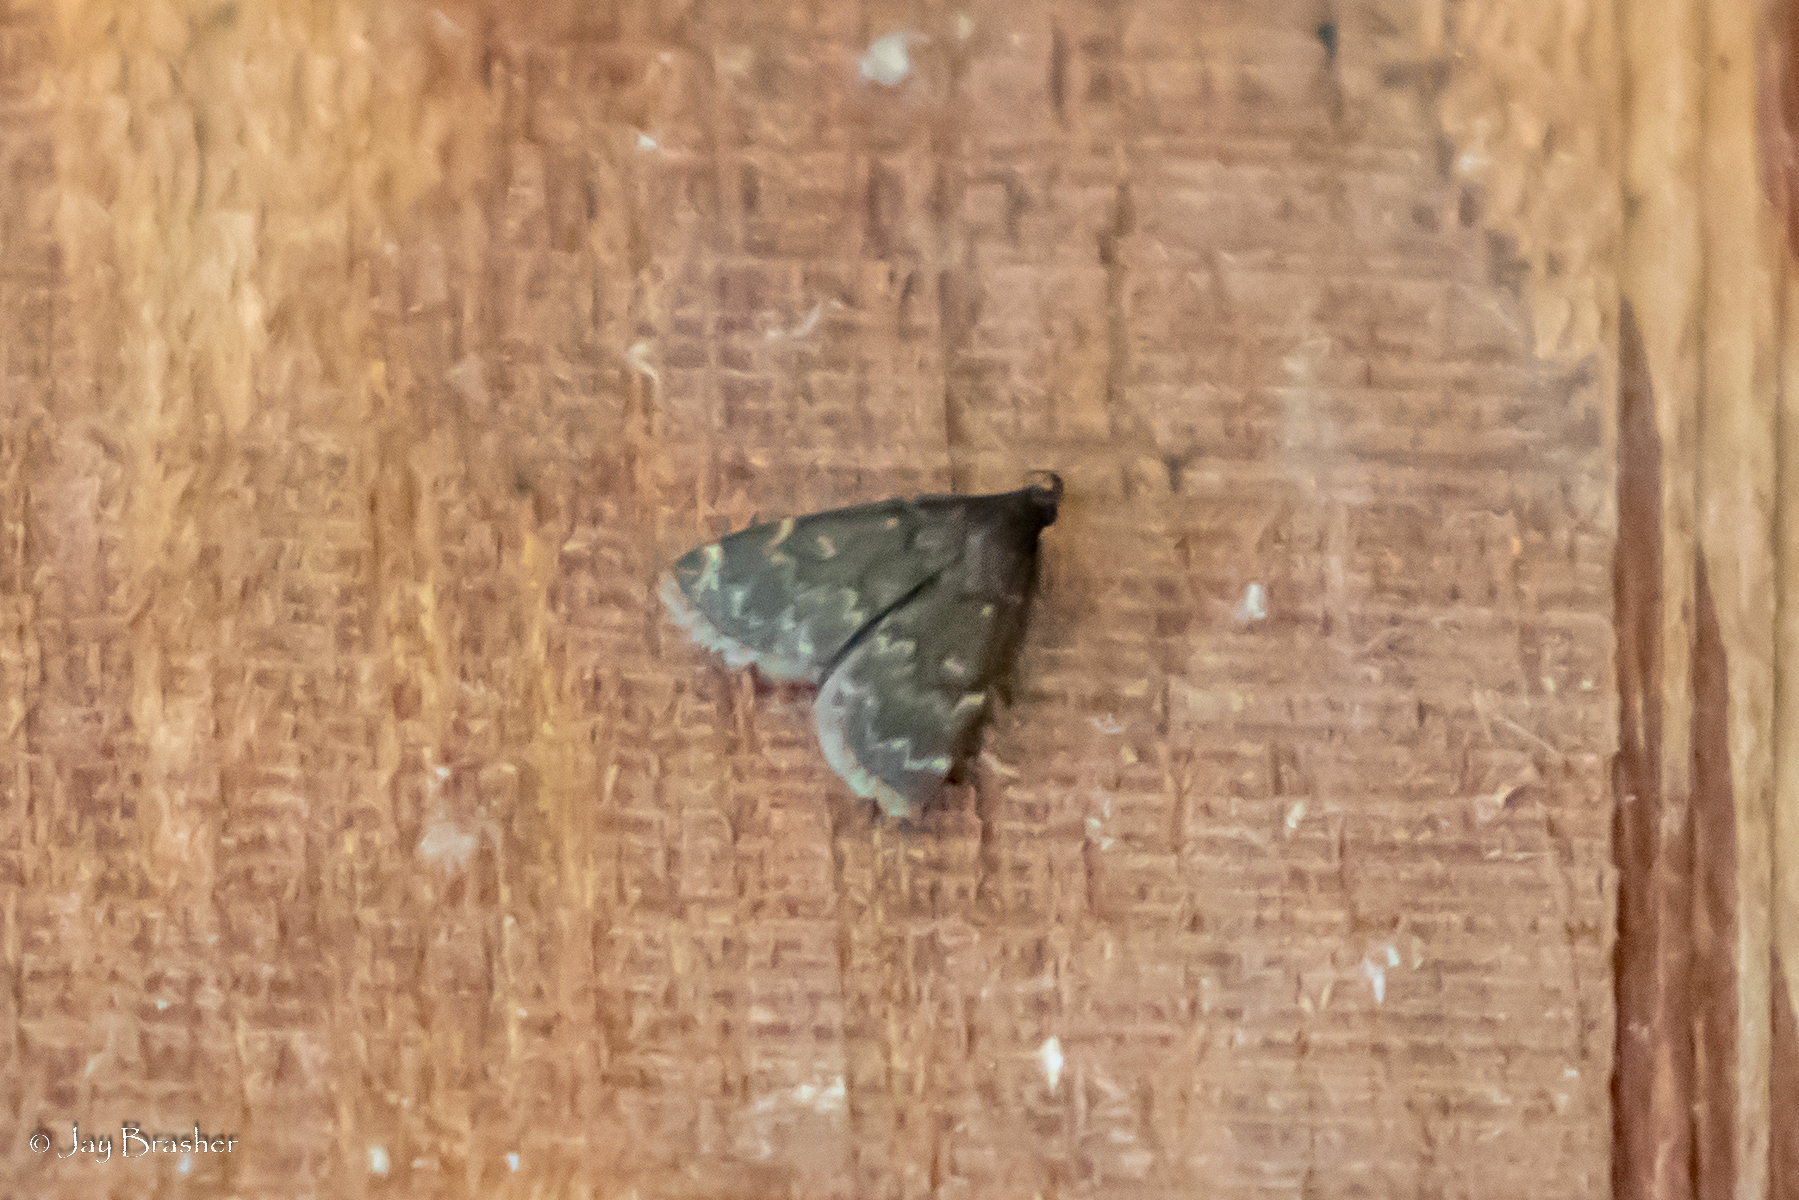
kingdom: Animalia
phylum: Arthropoda
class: Insecta
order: Lepidoptera
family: Erebidae
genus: Idia
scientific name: Idia lubricalis
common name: Twin-striped tabby
